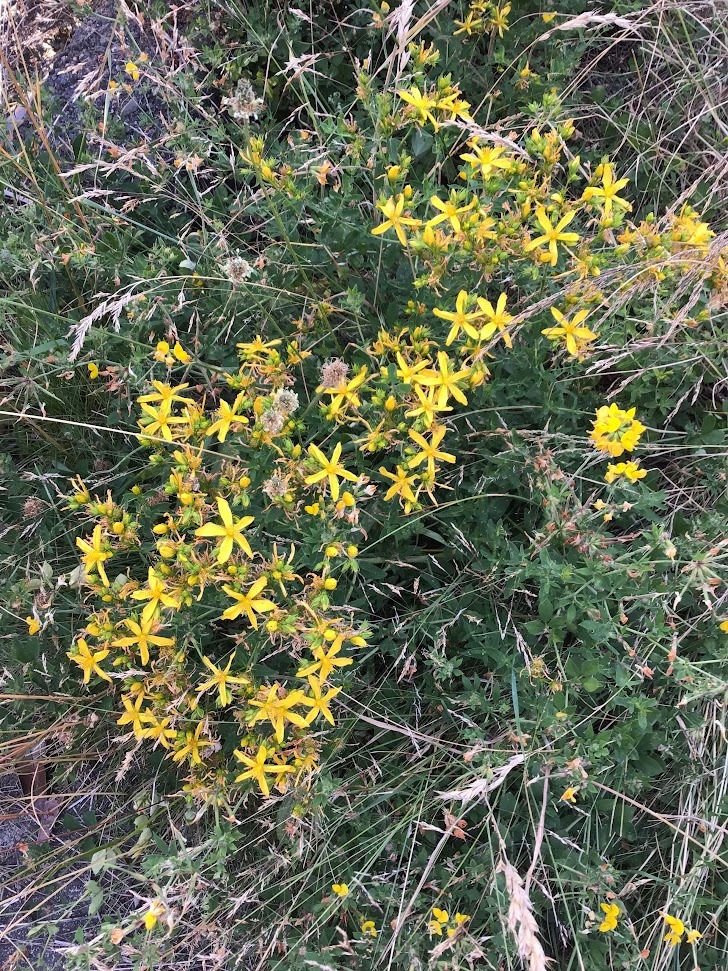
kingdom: Plantae
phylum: Tracheophyta
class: Magnoliopsida
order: Malpighiales
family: Hypericaceae
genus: Hypericum
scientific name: Hypericum perforatum
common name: Common st. johnswort
